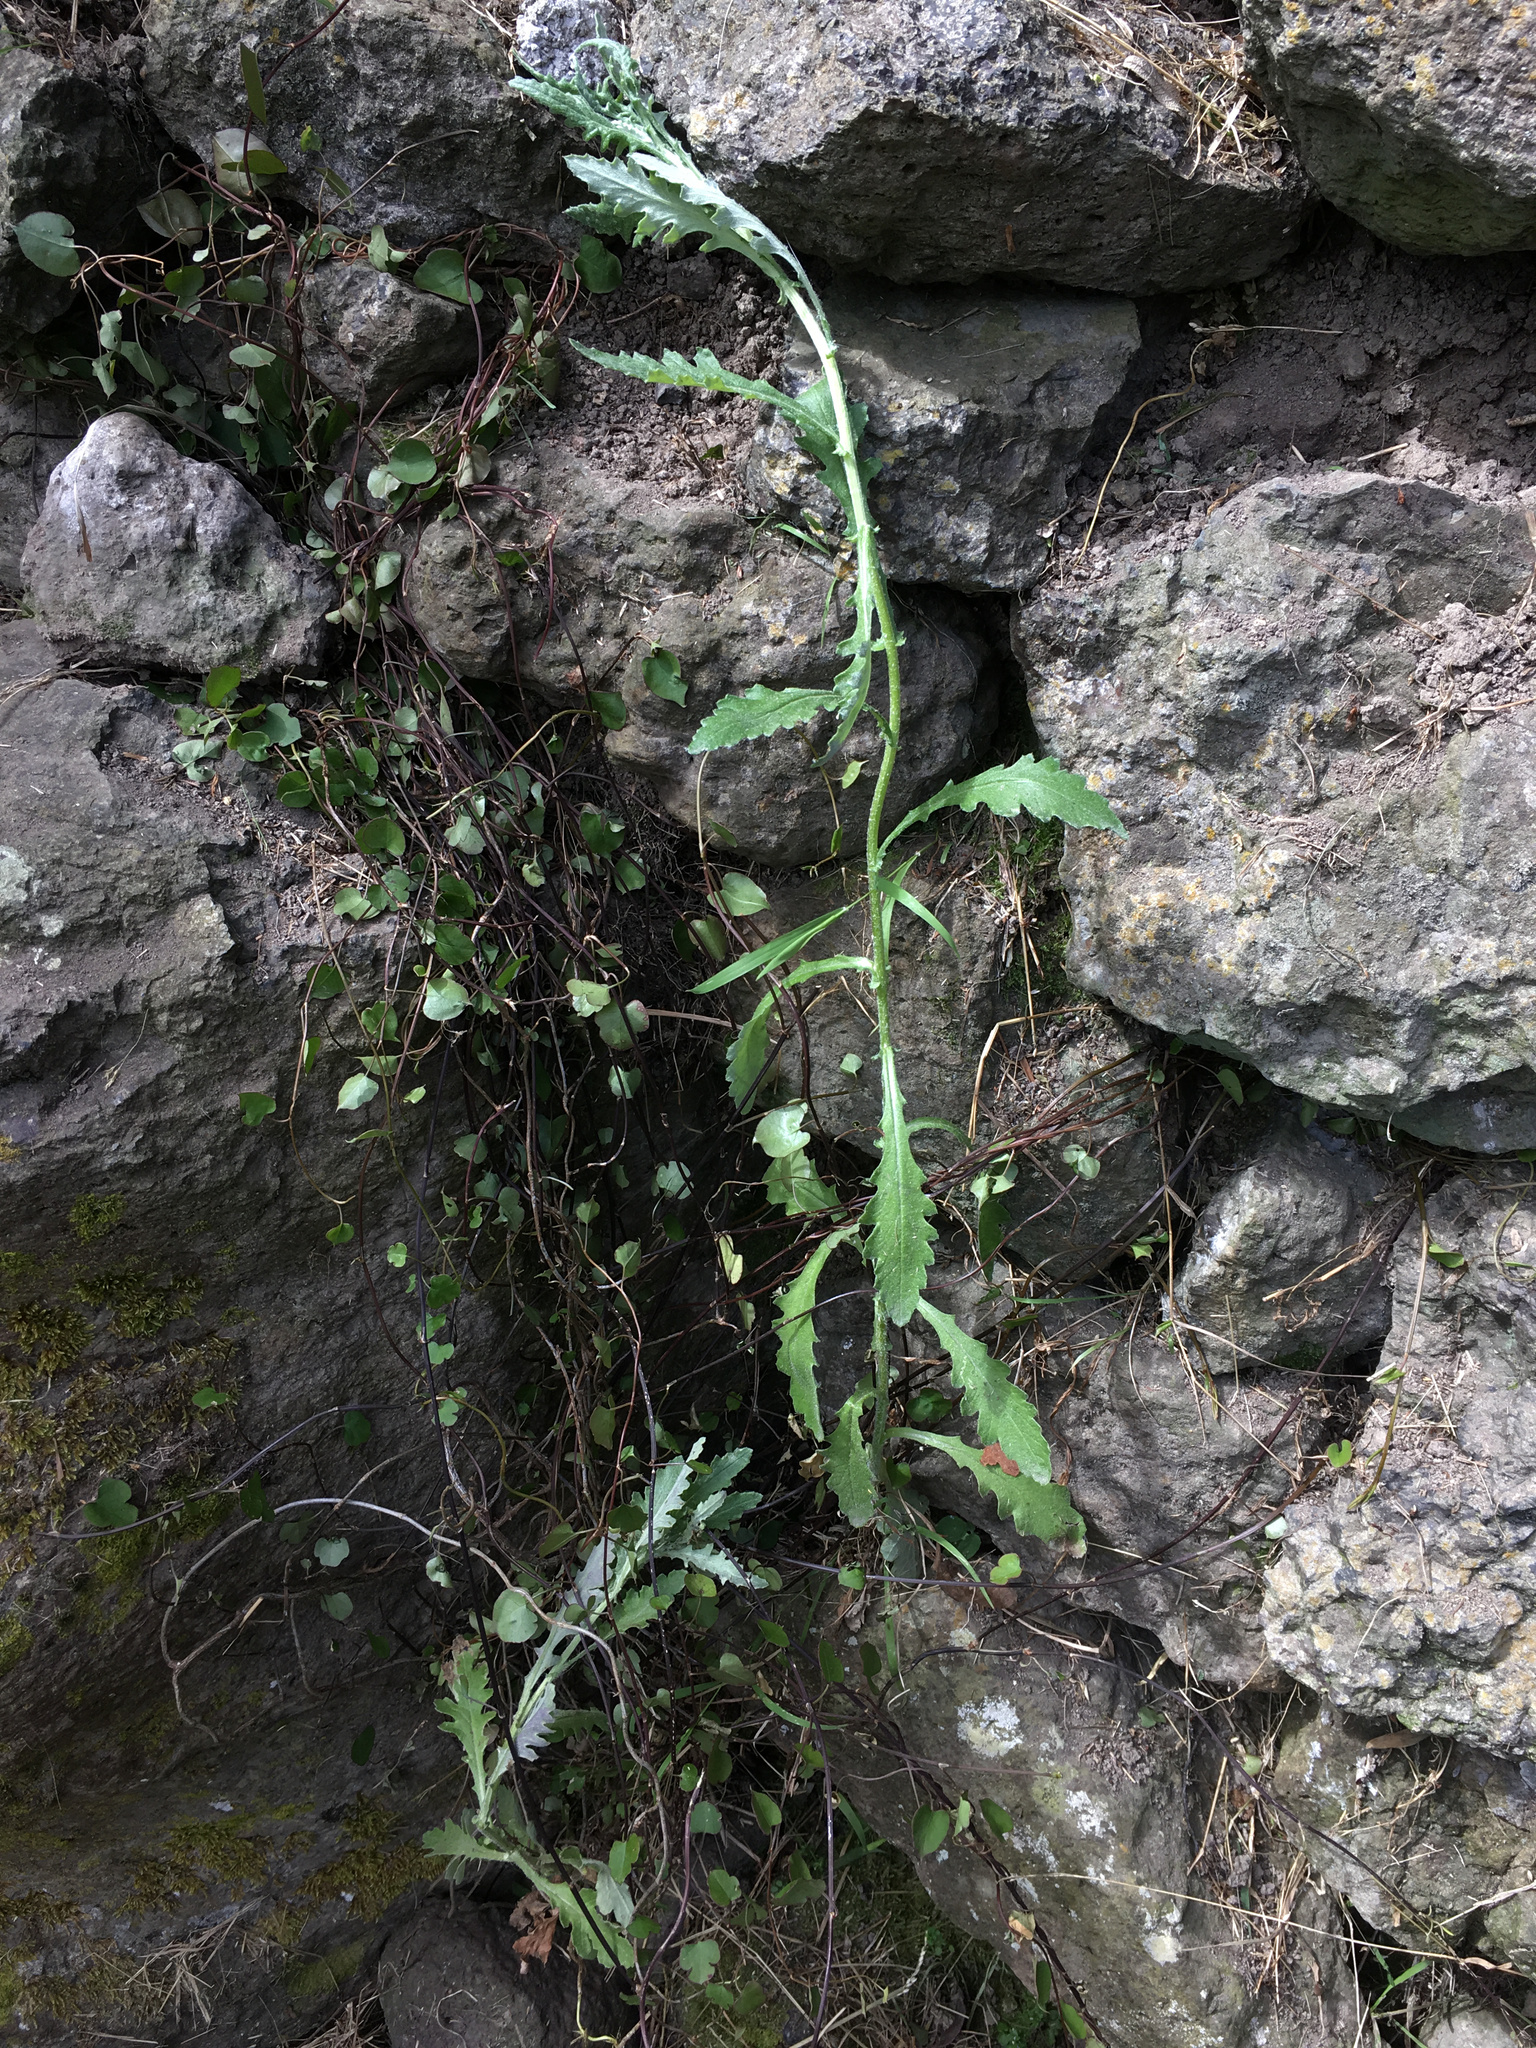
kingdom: Plantae
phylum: Tracheophyta
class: Magnoliopsida
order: Asterales
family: Asteraceae
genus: Senecio
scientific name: Senecio glomeratus
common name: Cutleaf burnweed
